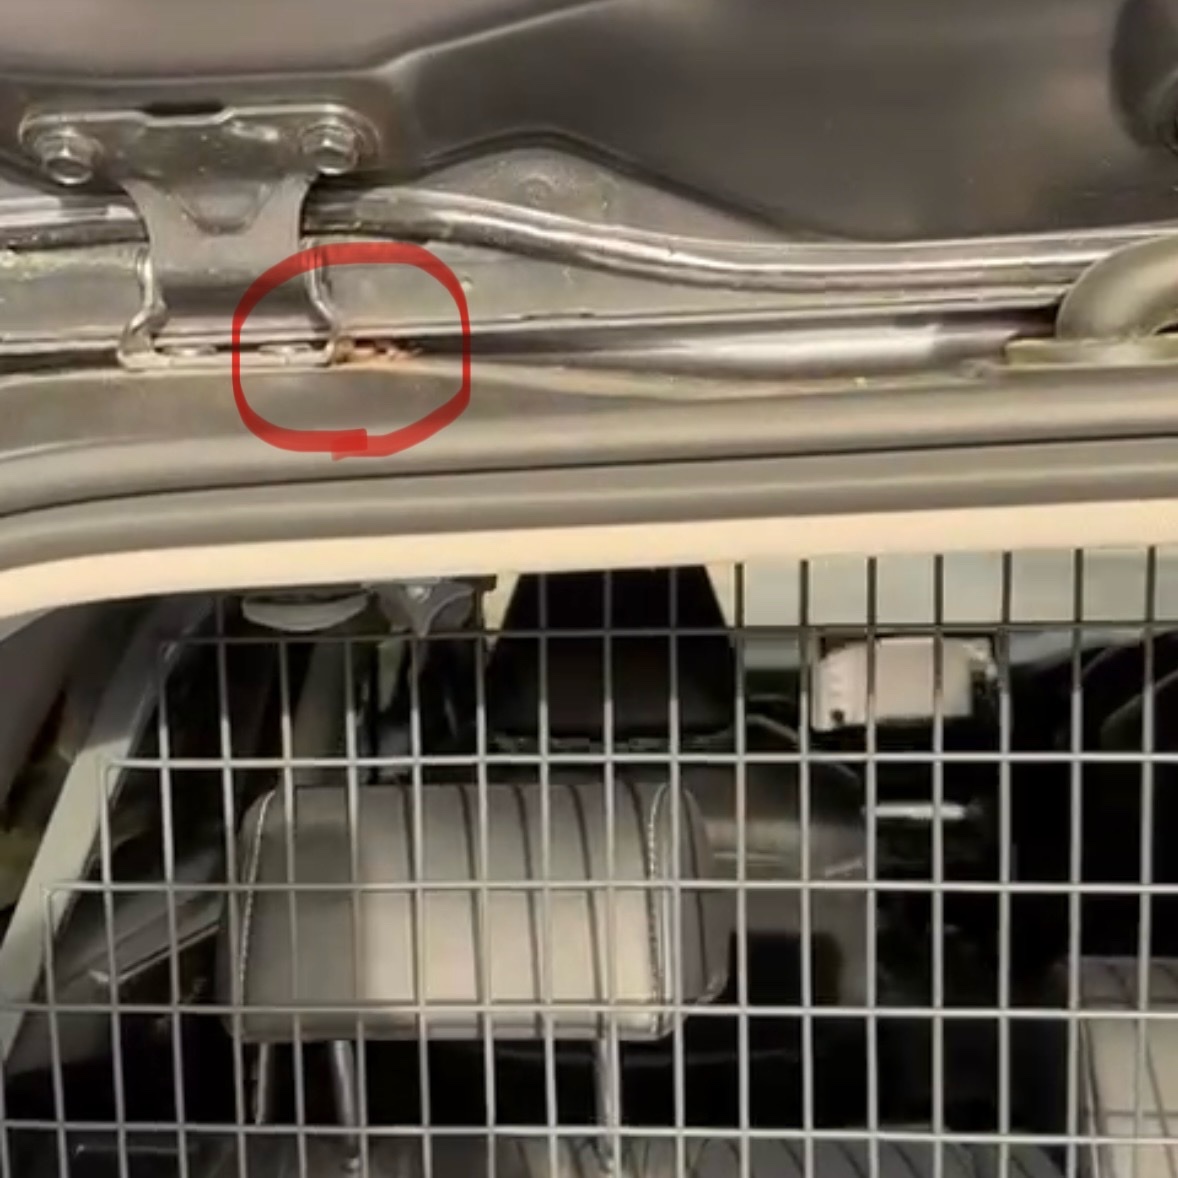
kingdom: Animalia
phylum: Chordata
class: Amphibia
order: Anura
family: Pelodryadidae
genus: Litoria
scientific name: Litoria peronii
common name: Emerald spotted treefrog
